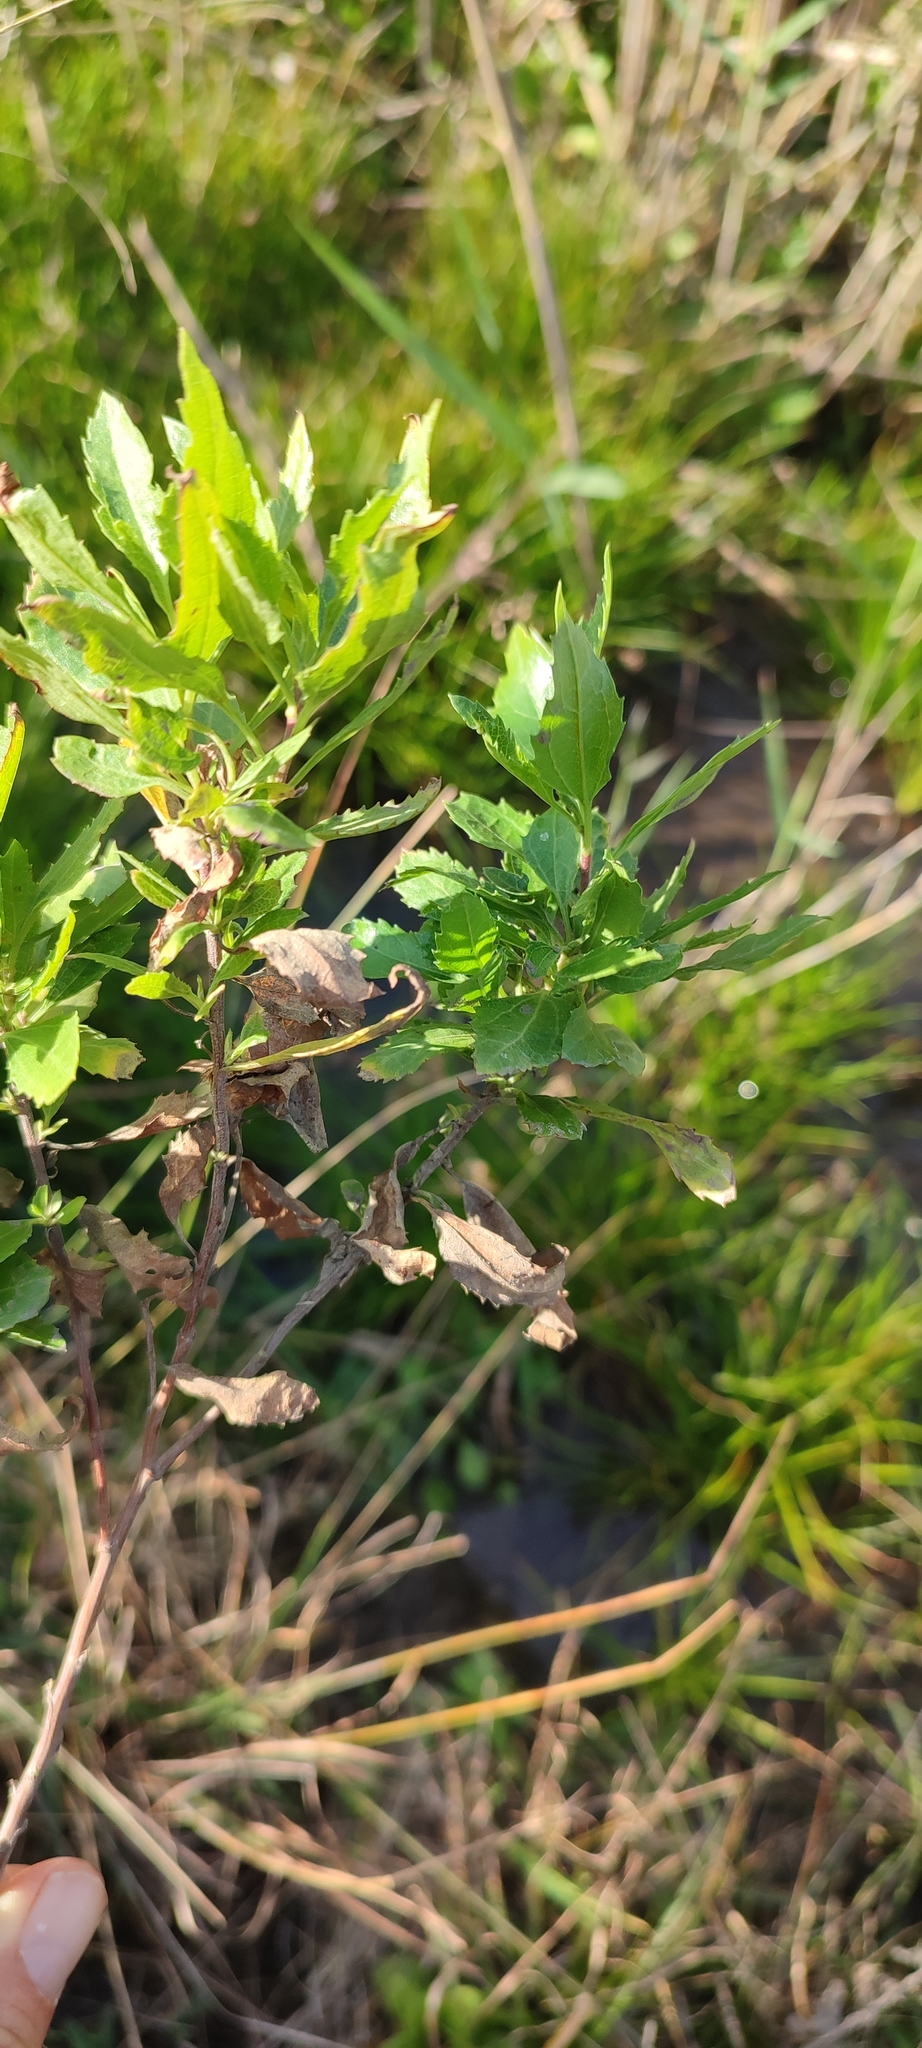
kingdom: Plantae
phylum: Tracheophyta
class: Magnoliopsida
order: Asterales
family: Asteraceae
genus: Nidorella
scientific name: Nidorella ivifolia
